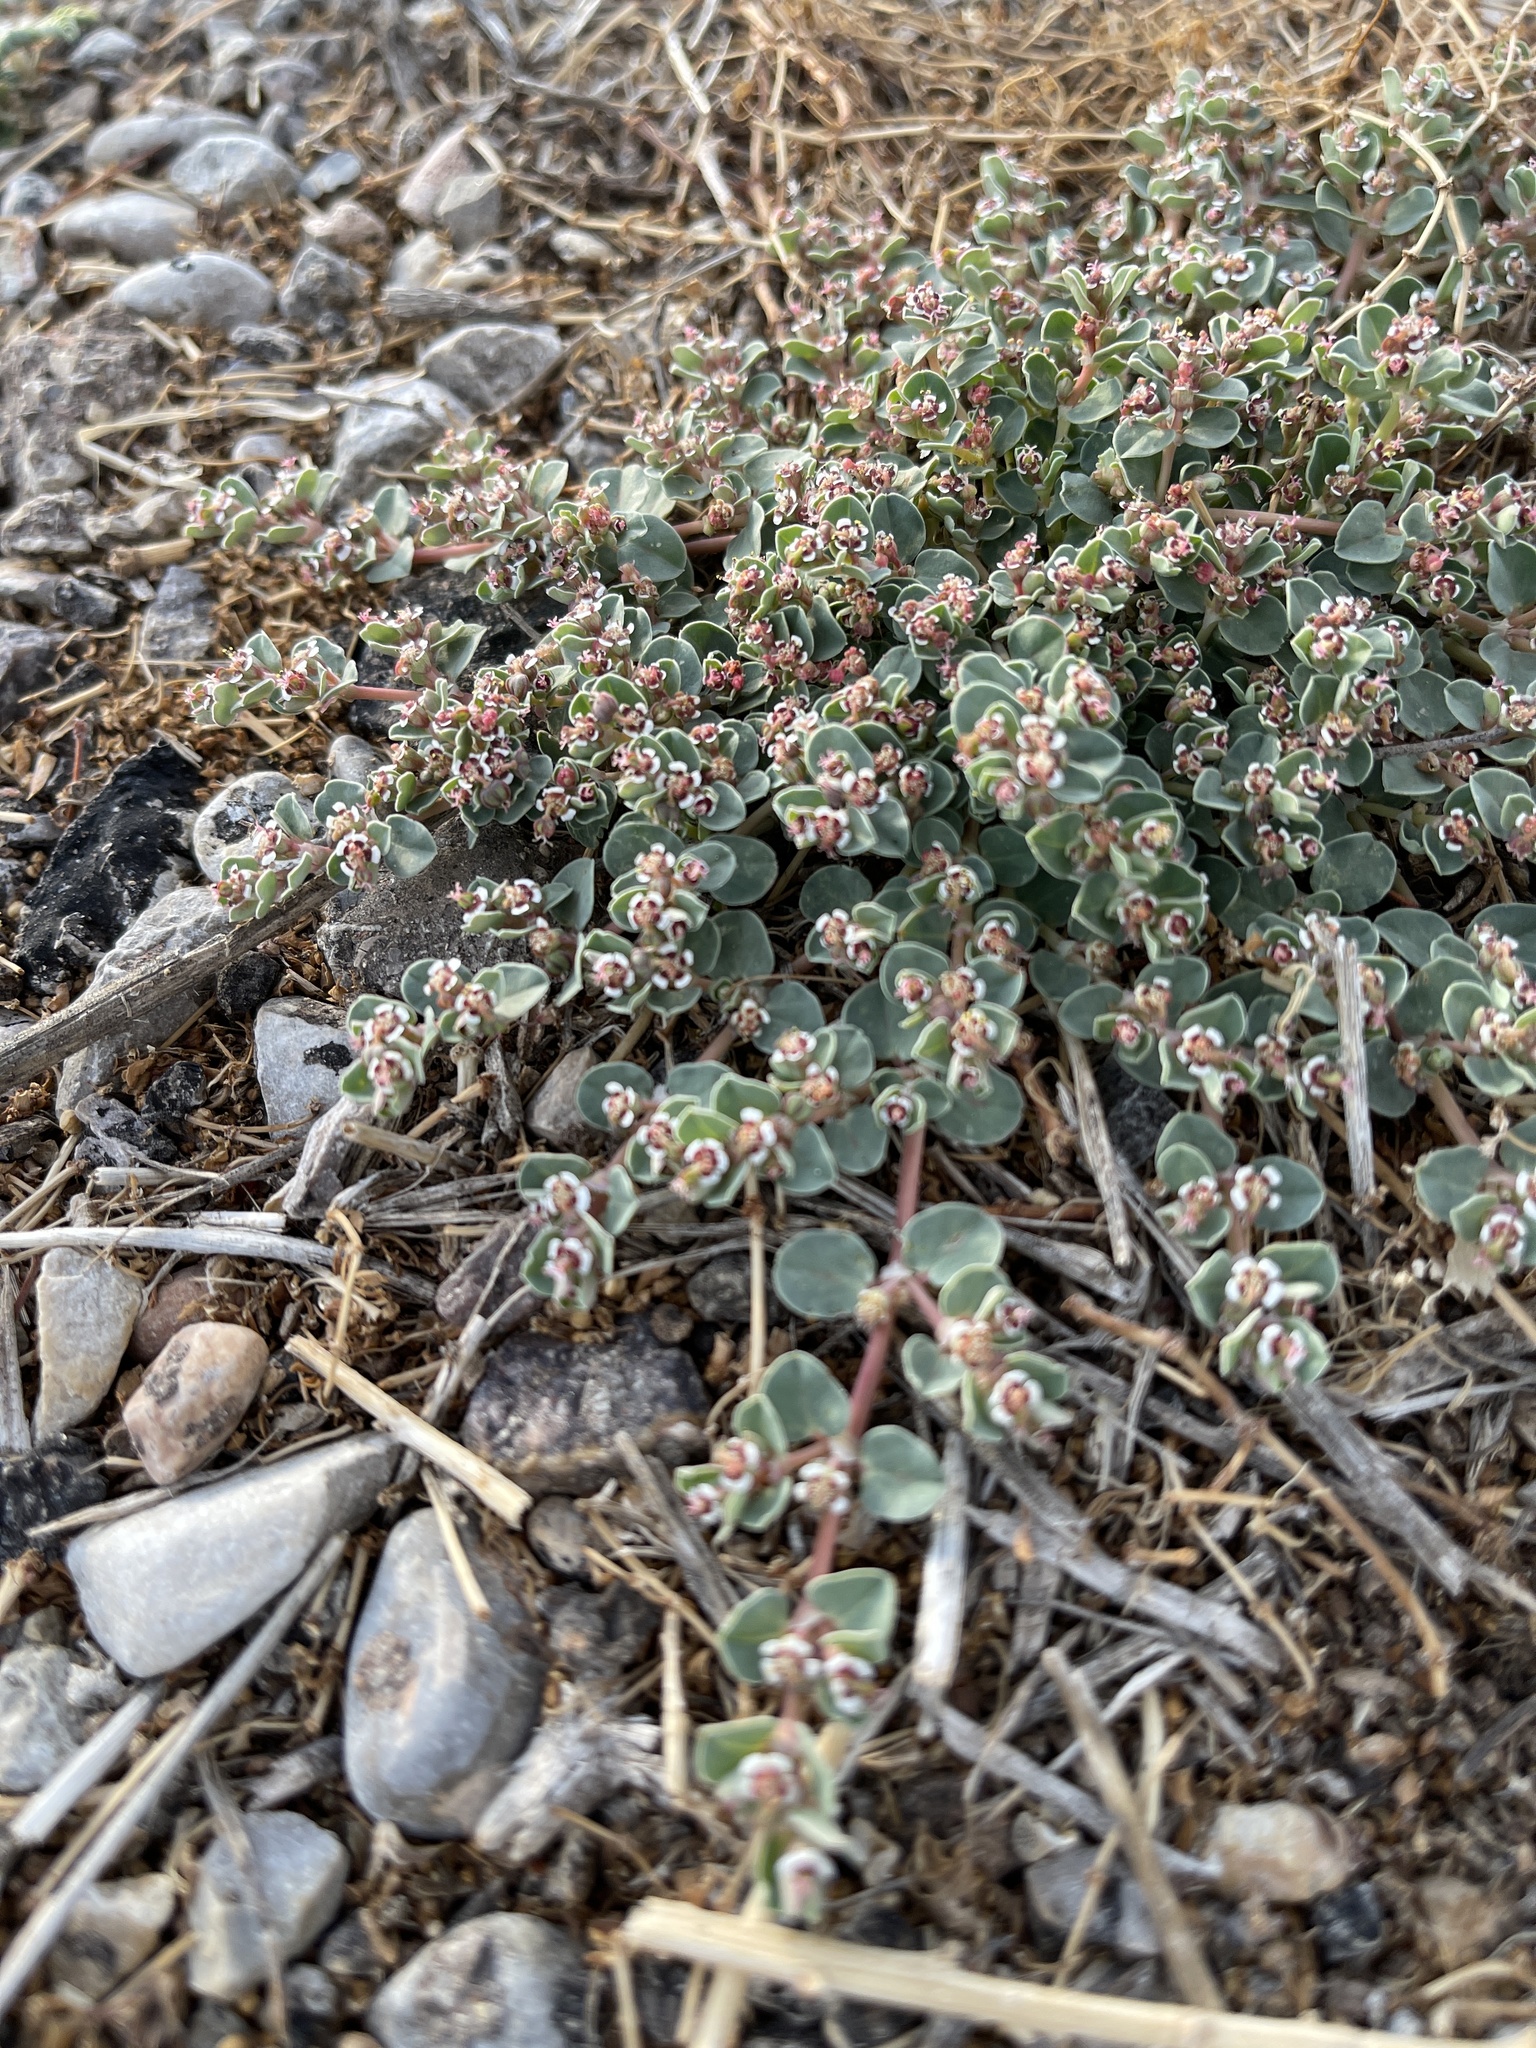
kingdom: Plantae
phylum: Tracheophyta
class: Magnoliopsida
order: Malpighiales
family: Euphorbiaceae
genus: Euphorbia
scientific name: Euphorbia albomarginata
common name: Whitemargin sandmat
